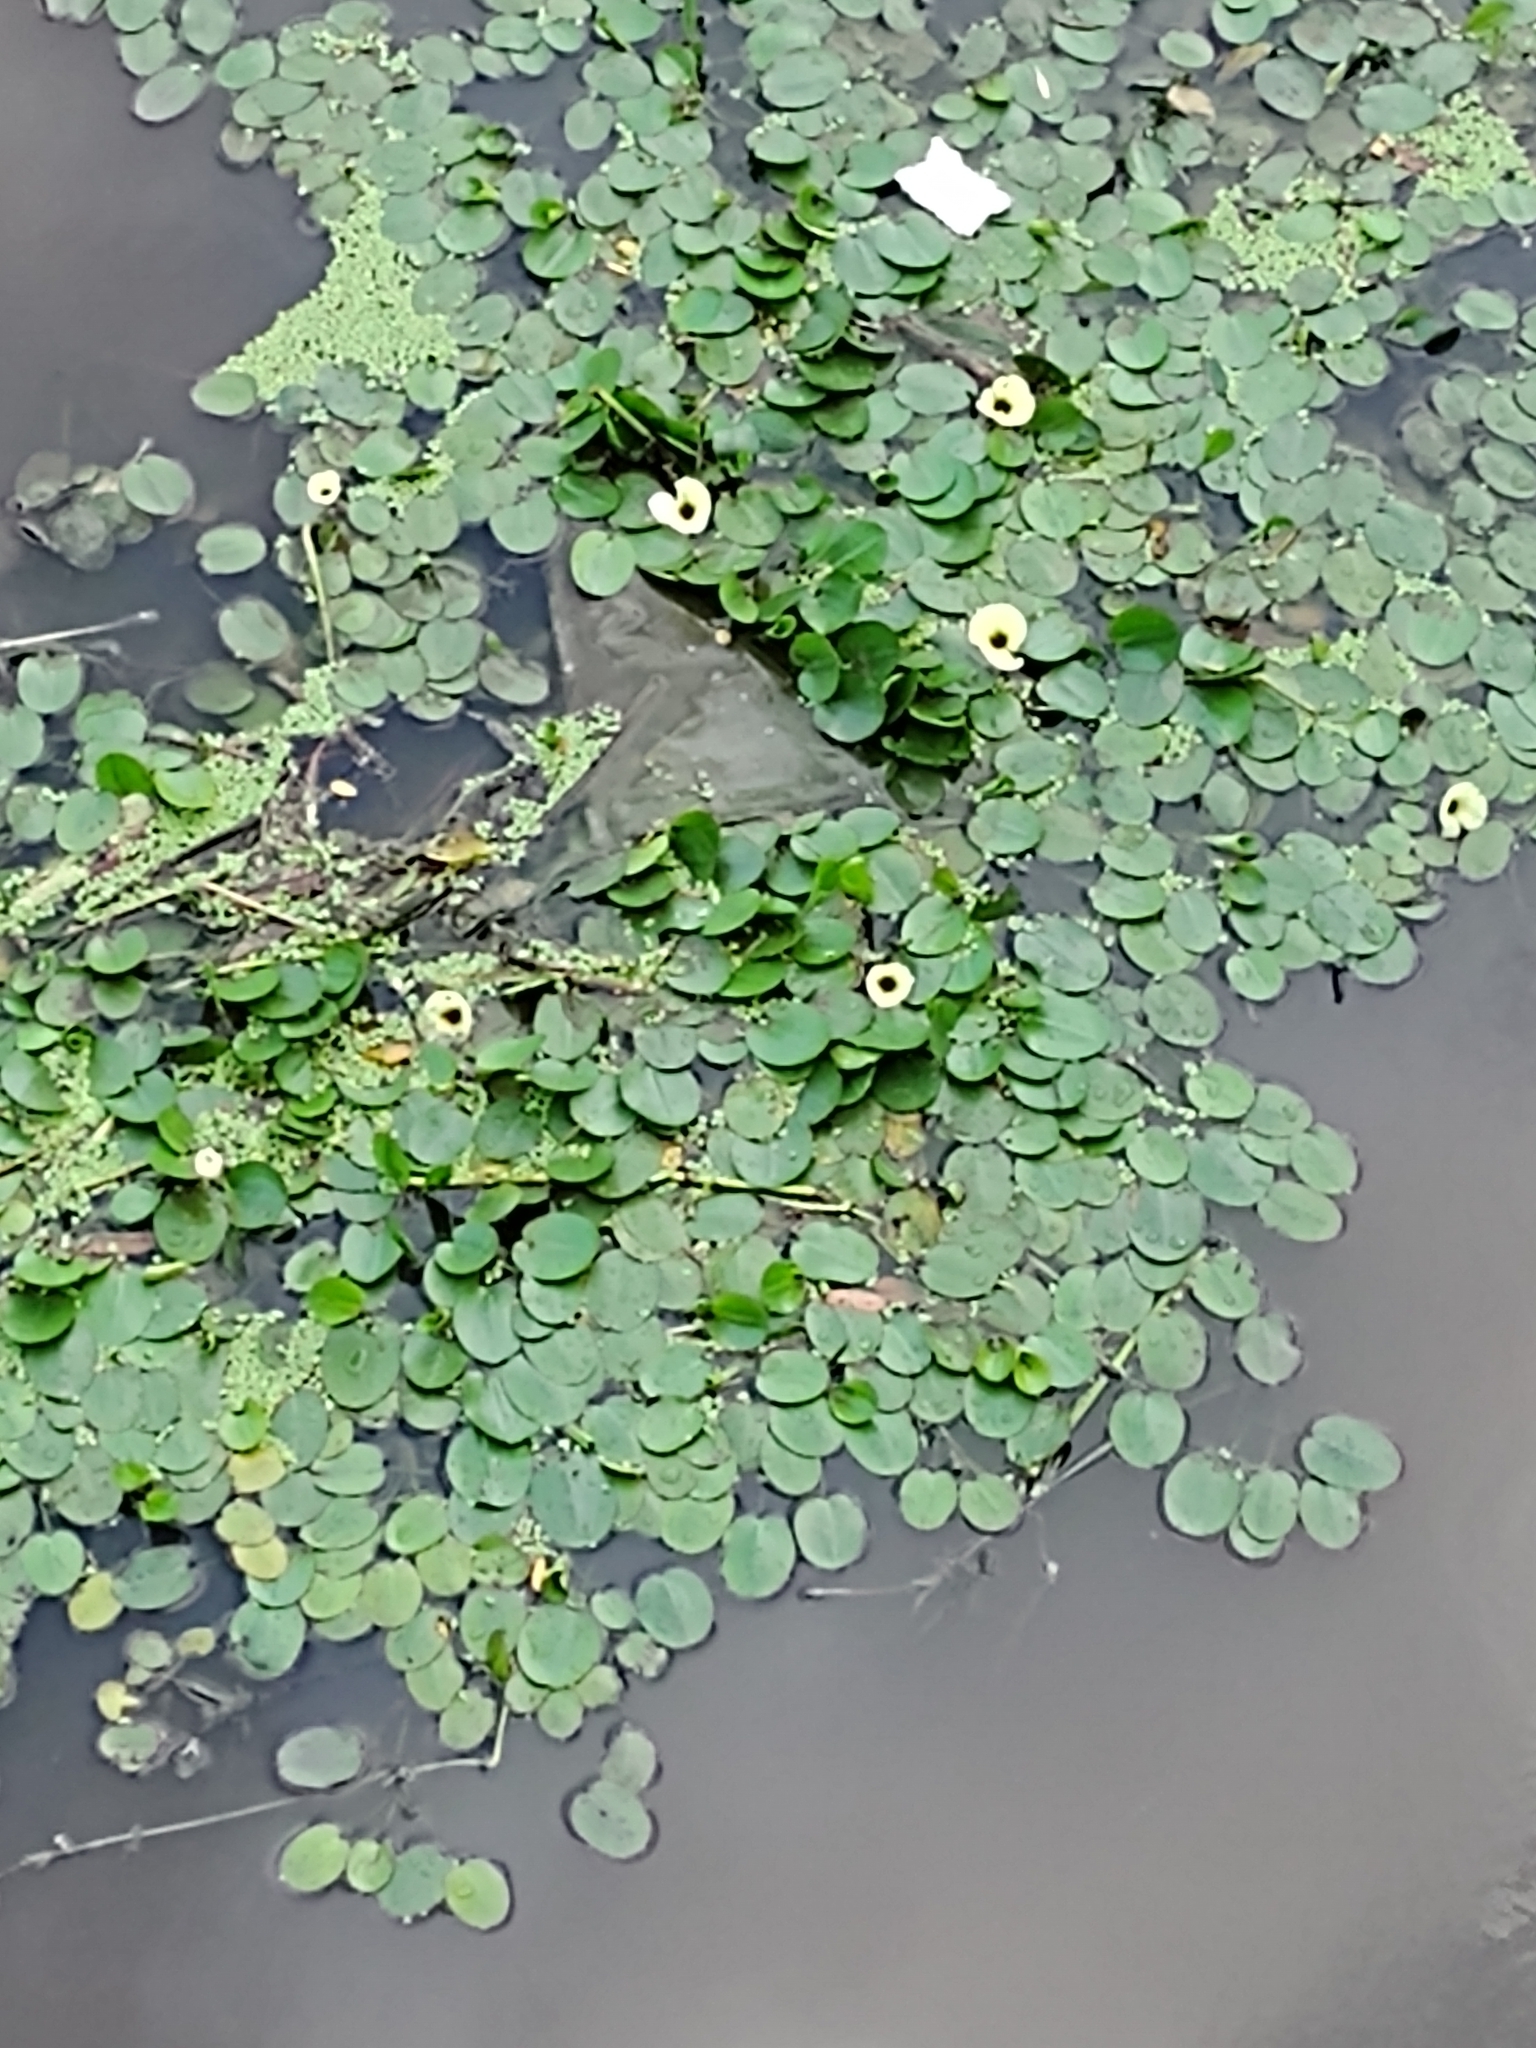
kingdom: Plantae
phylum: Tracheophyta
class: Liliopsida
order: Alismatales
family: Alismataceae
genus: Hydrocleys
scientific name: Hydrocleys nymphoides
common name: Water-poppy
